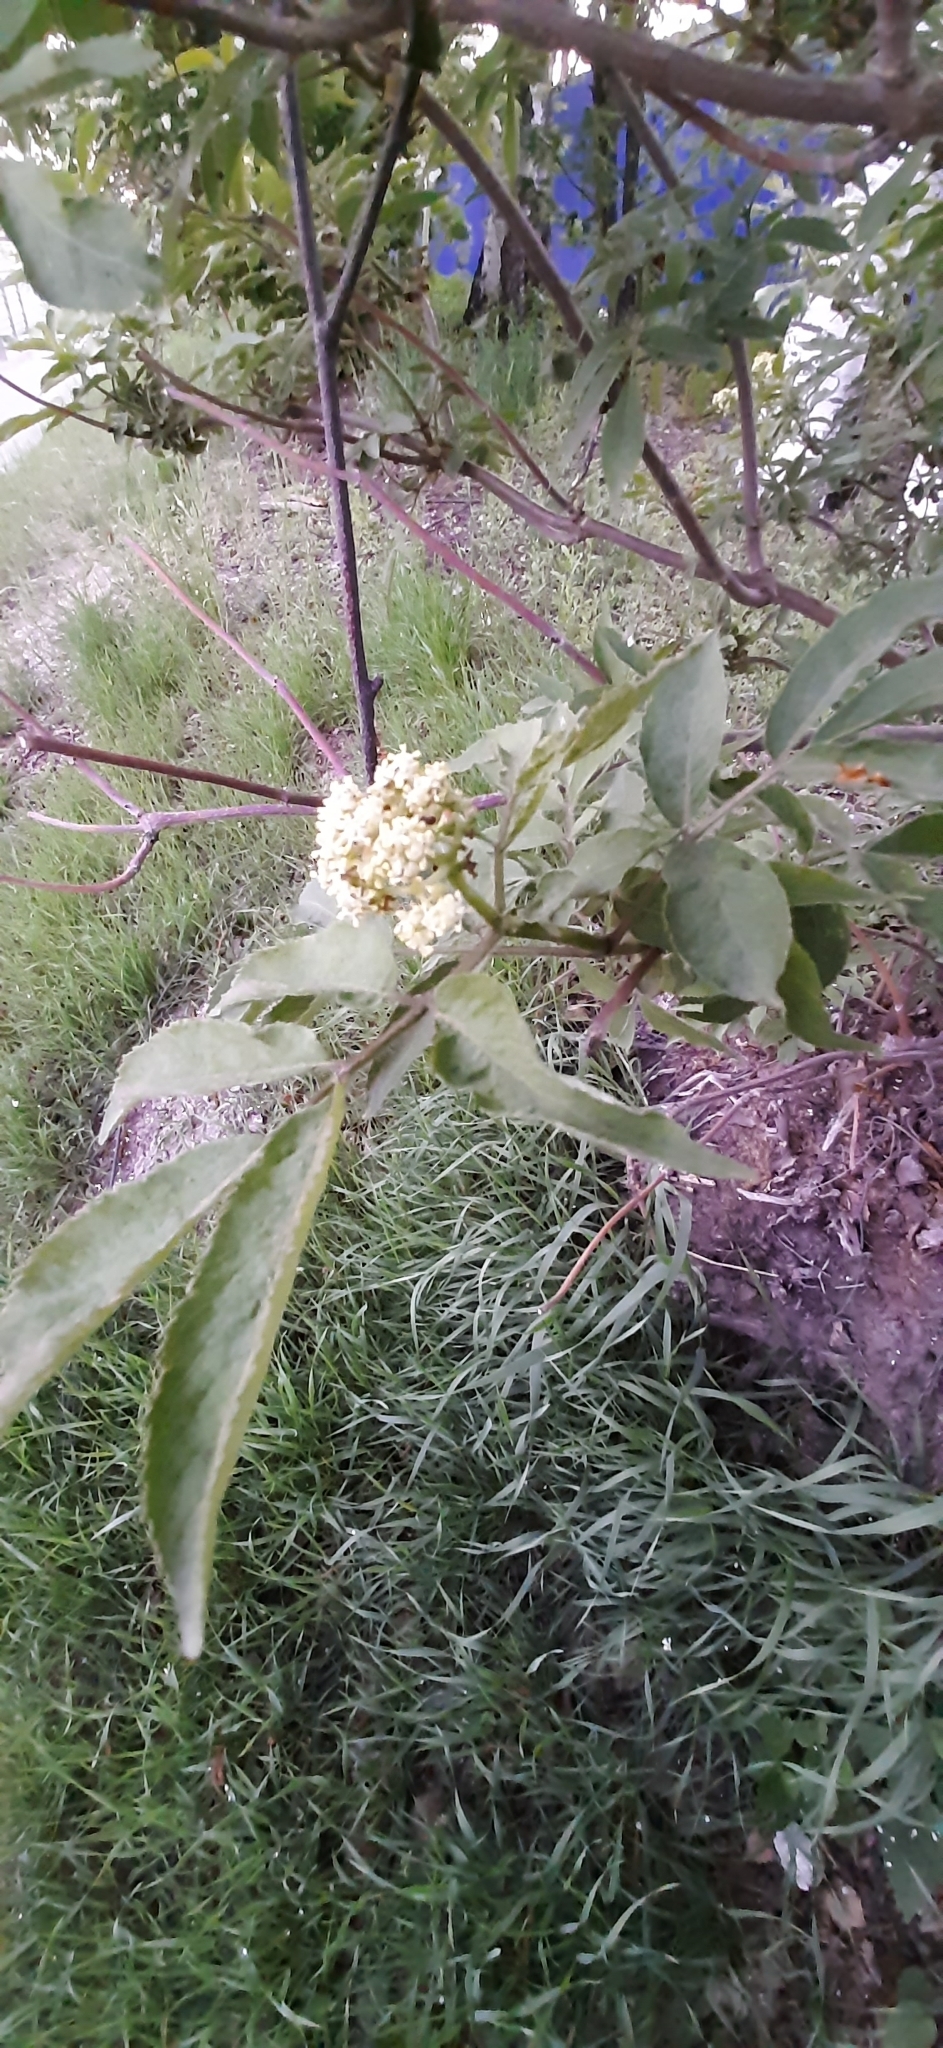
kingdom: Plantae
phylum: Tracheophyta
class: Magnoliopsida
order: Dipsacales
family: Viburnaceae
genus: Sambucus
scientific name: Sambucus sibirica
